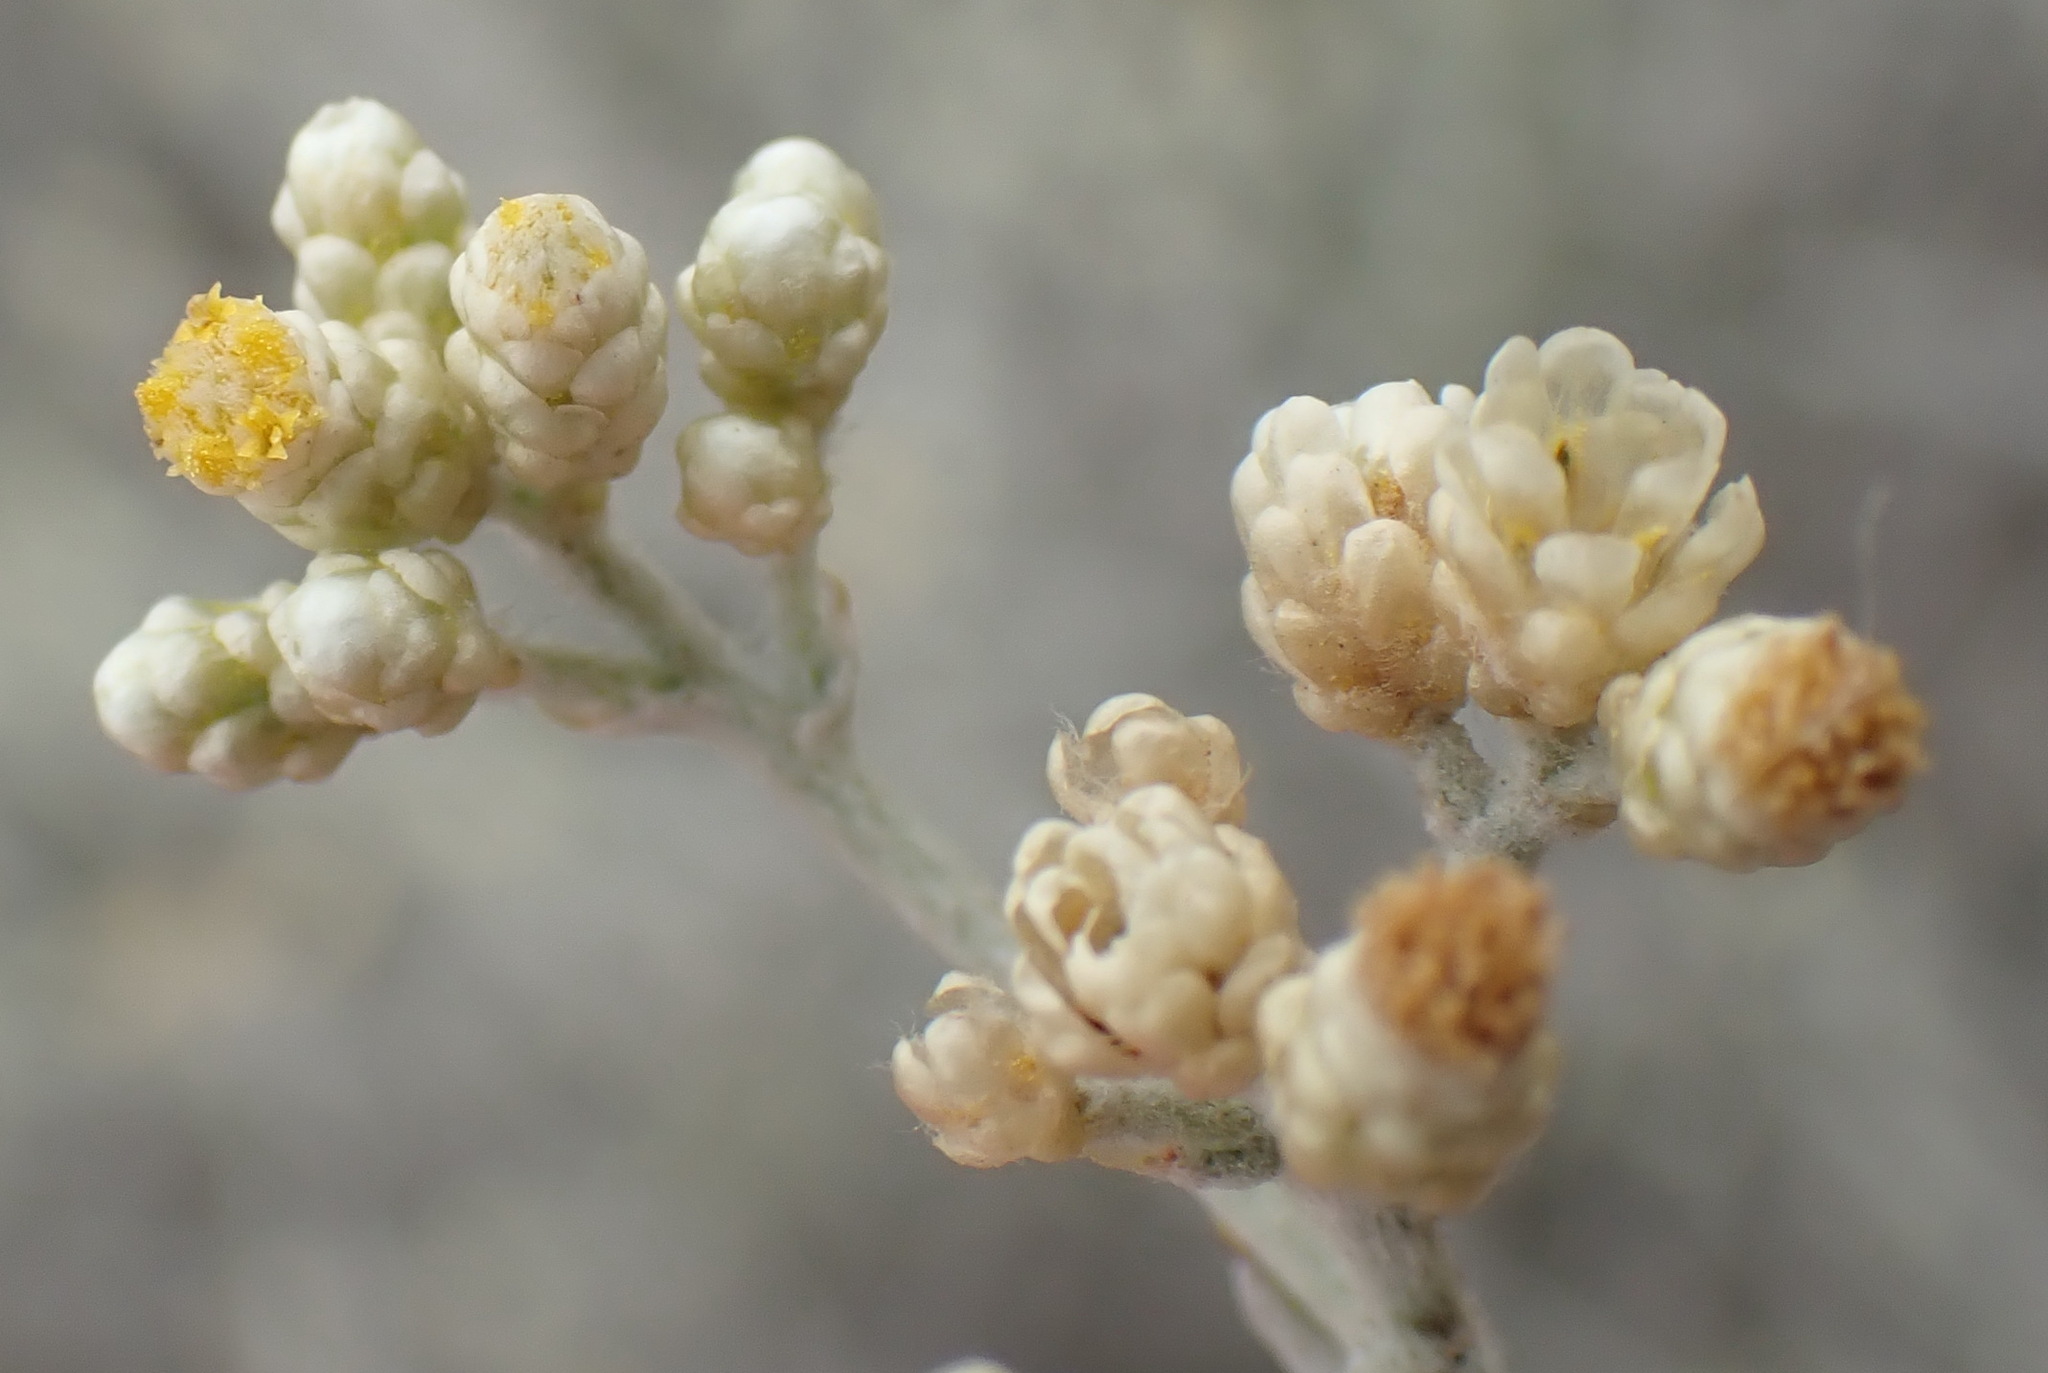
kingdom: Plantae
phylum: Tracheophyta
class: Magnoliopsida
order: Asterales
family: Asteraceae
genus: Helichrysum
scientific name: Helichrysum zeyheri
